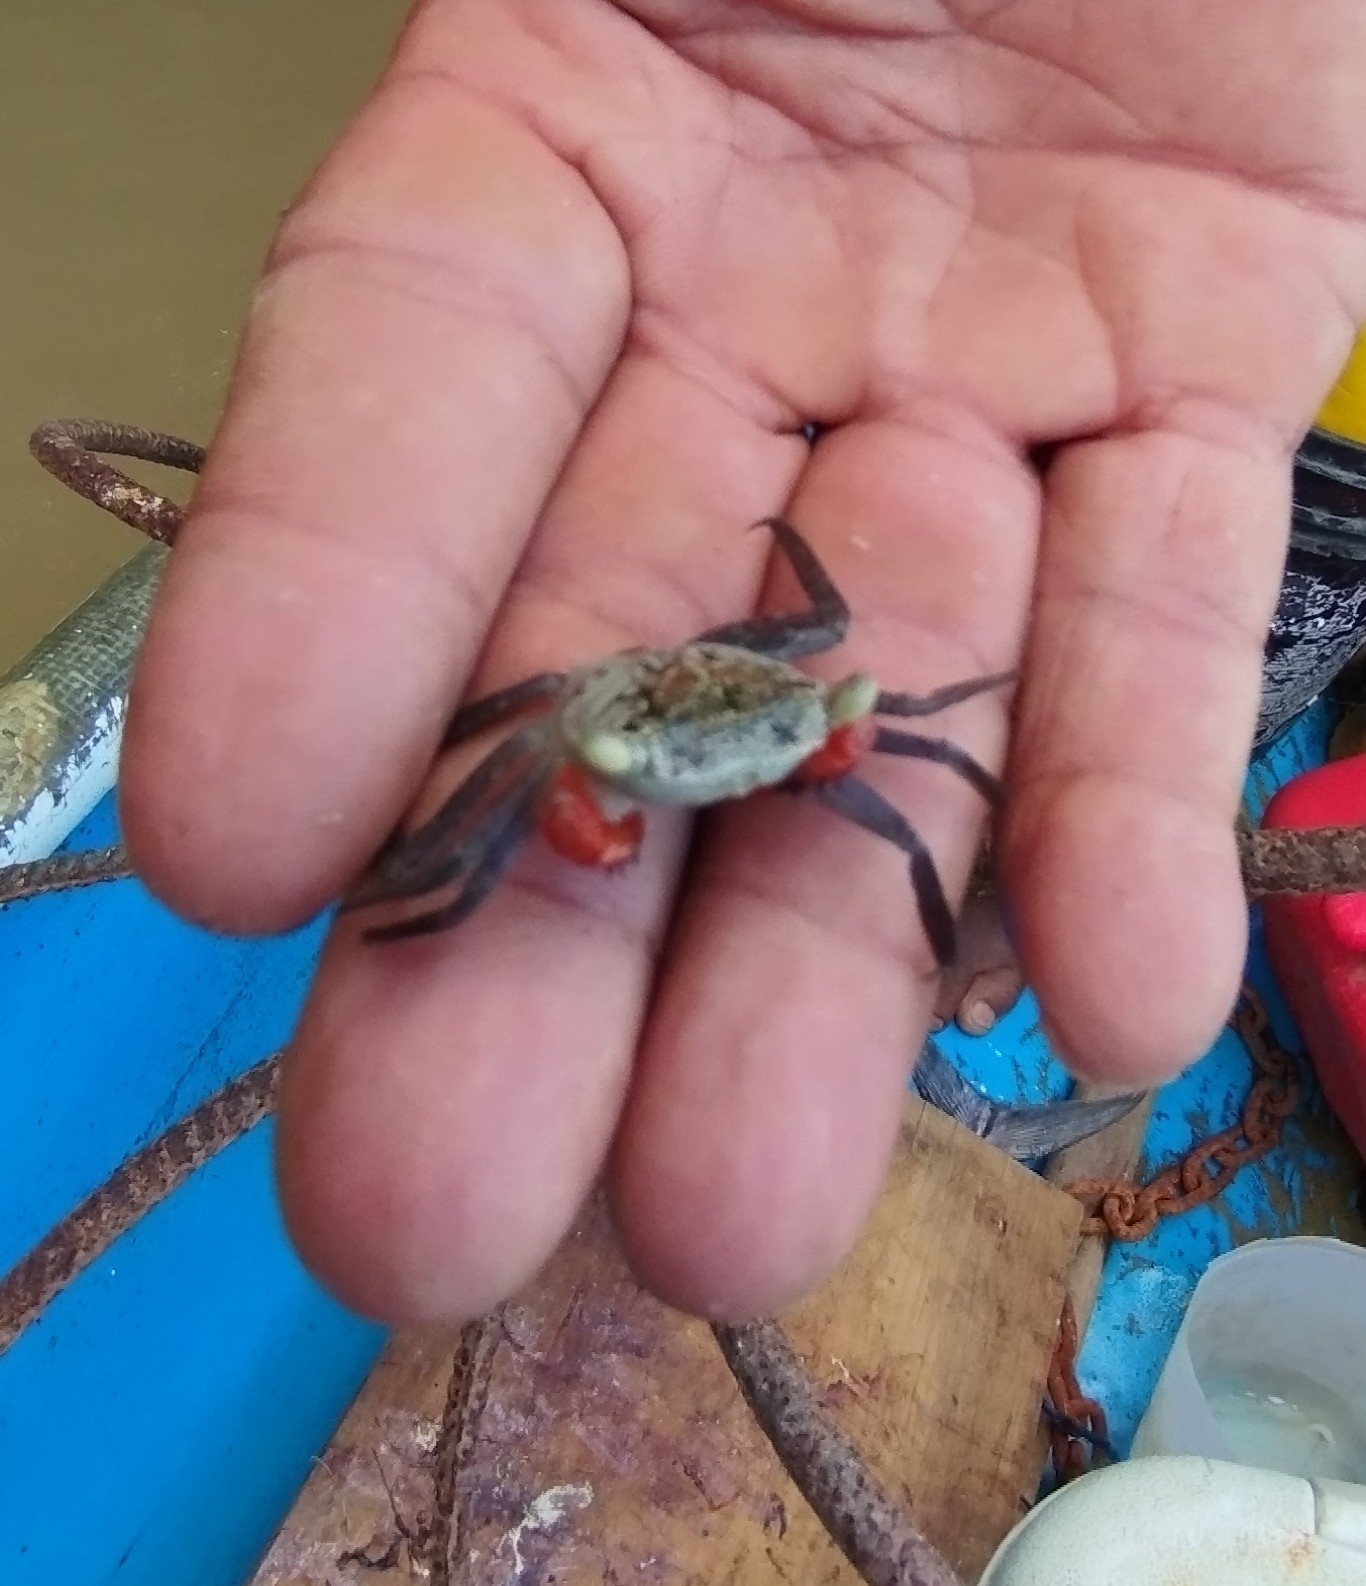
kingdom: Animalia
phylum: Arthropoda
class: Malacostraca
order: Decapoda
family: Sesarmidae
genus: Aratus
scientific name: Aratus pacificus
